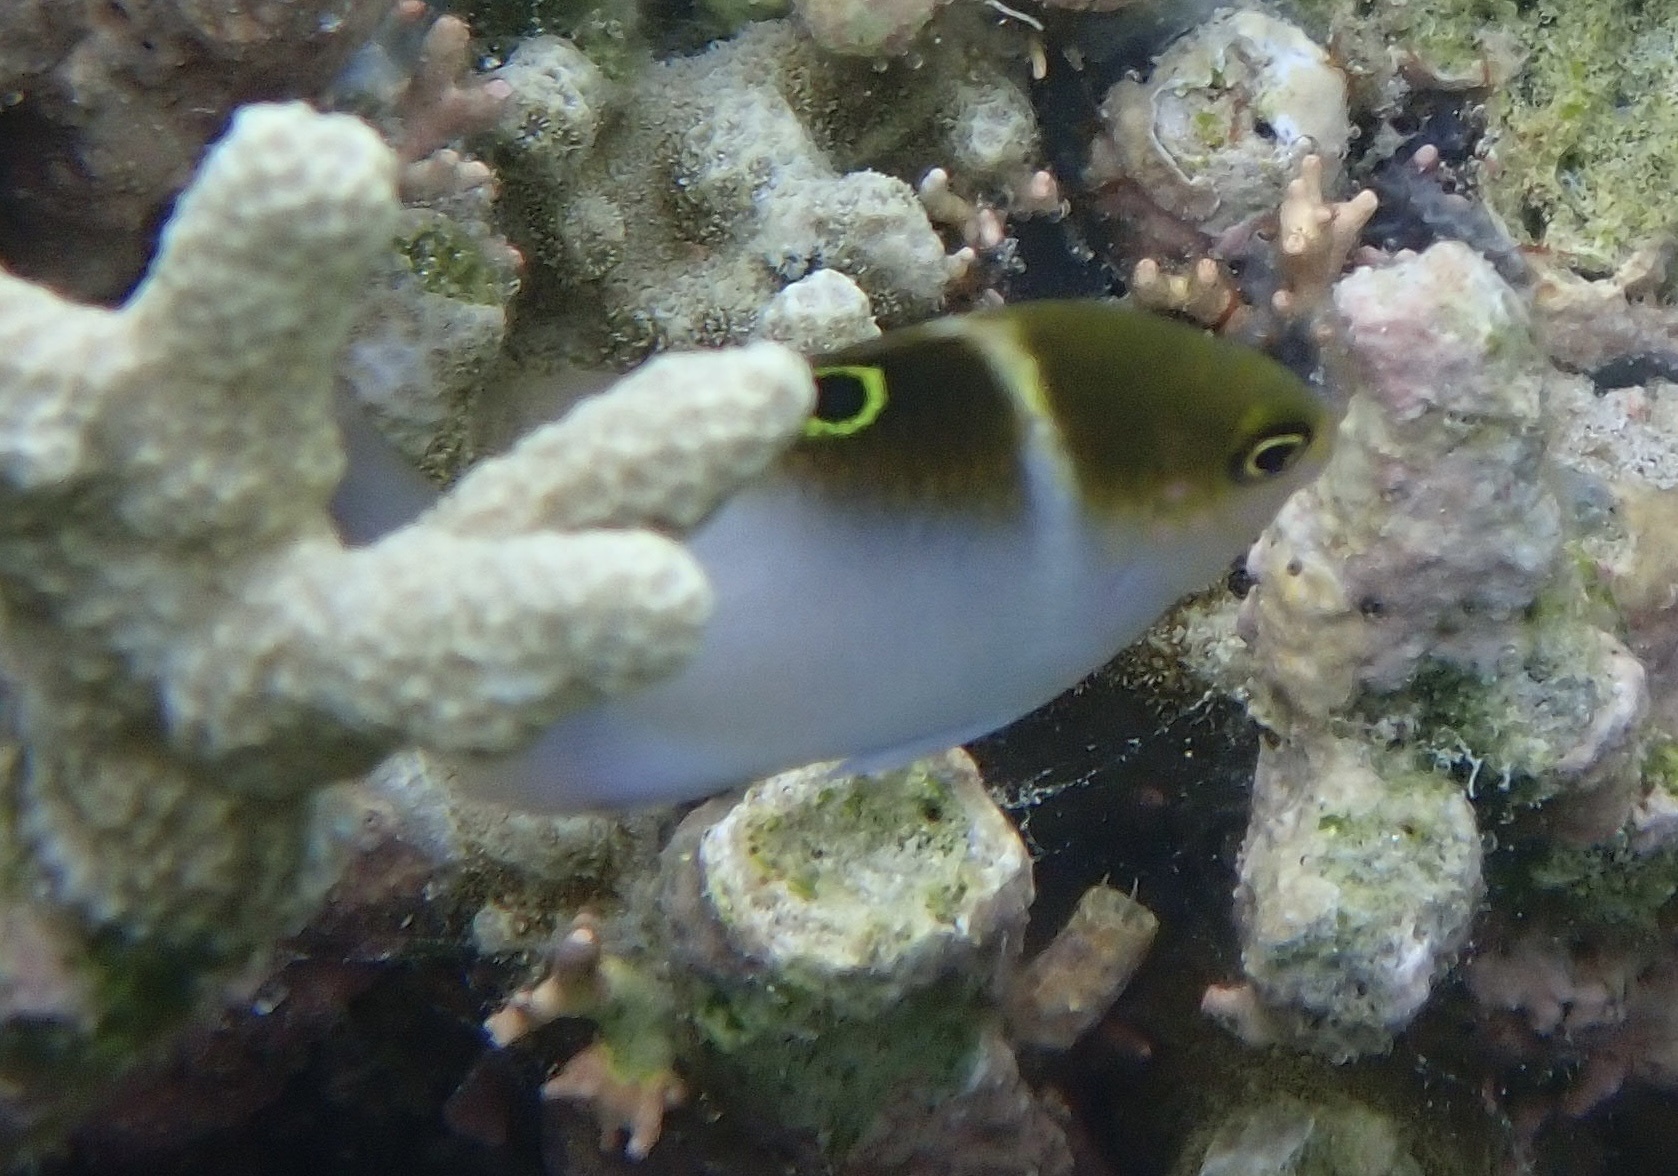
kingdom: Animalia
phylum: Chordata
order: Perciformes
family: Pomacentridae
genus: Dischistodus
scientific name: Dischistodus prosopotaenia
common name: Honey-head damsel
